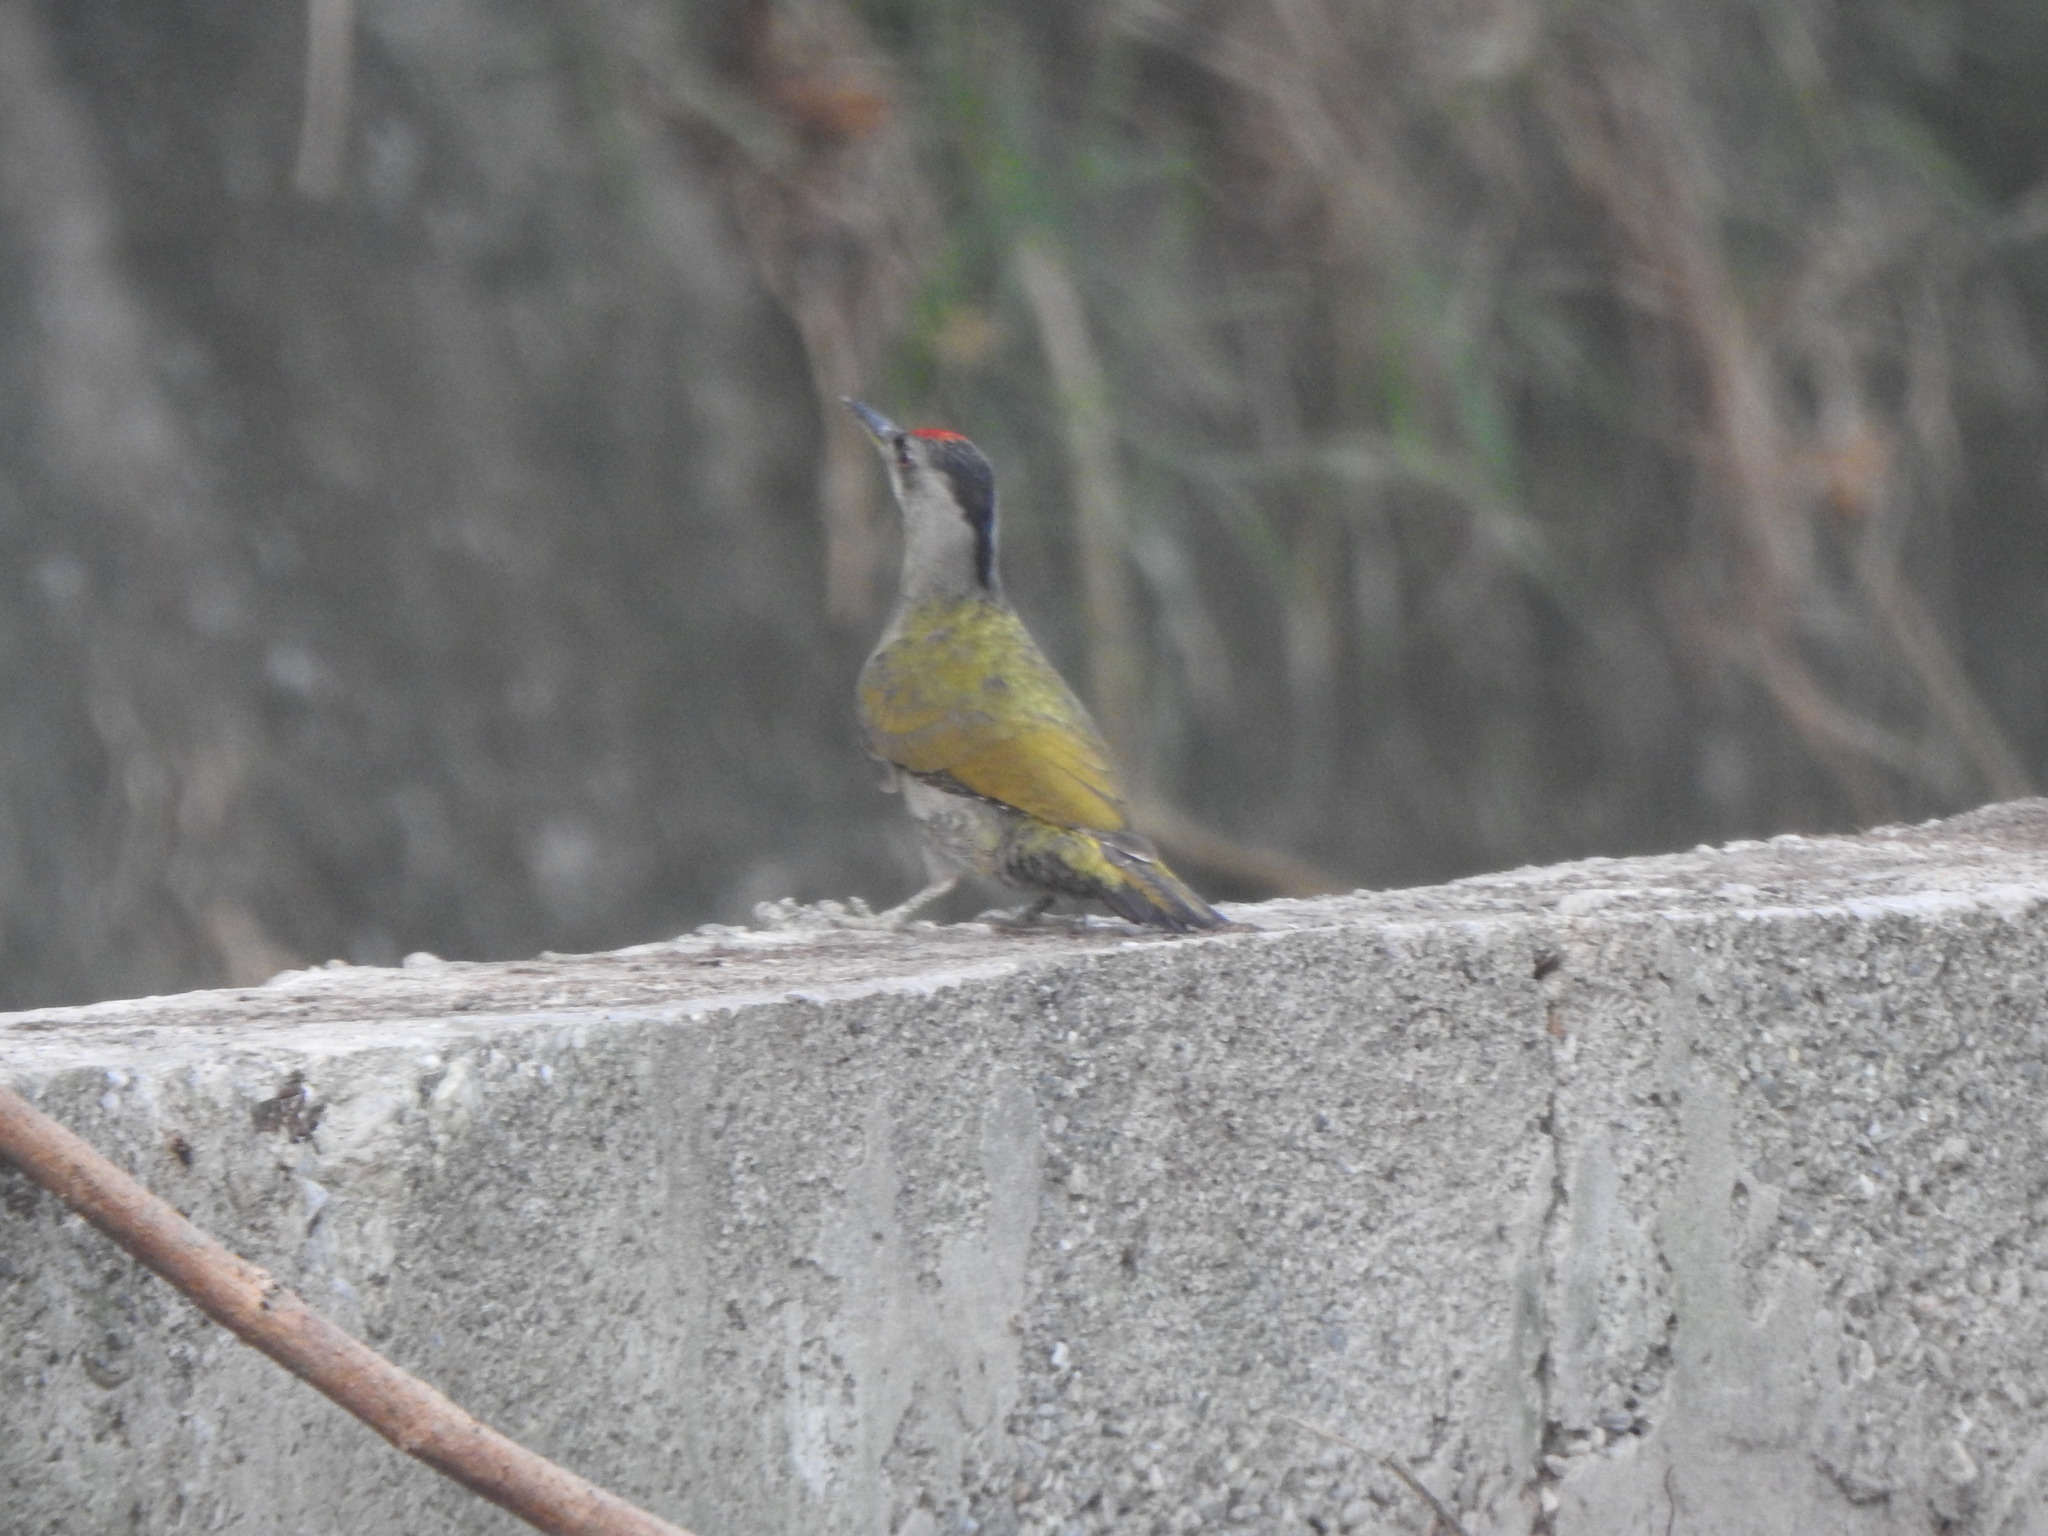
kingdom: Animalia
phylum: Chordata
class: Aves
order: Piciformes
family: Picidae
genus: Picus
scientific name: Picus canus
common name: Grey-headed woodpecker
